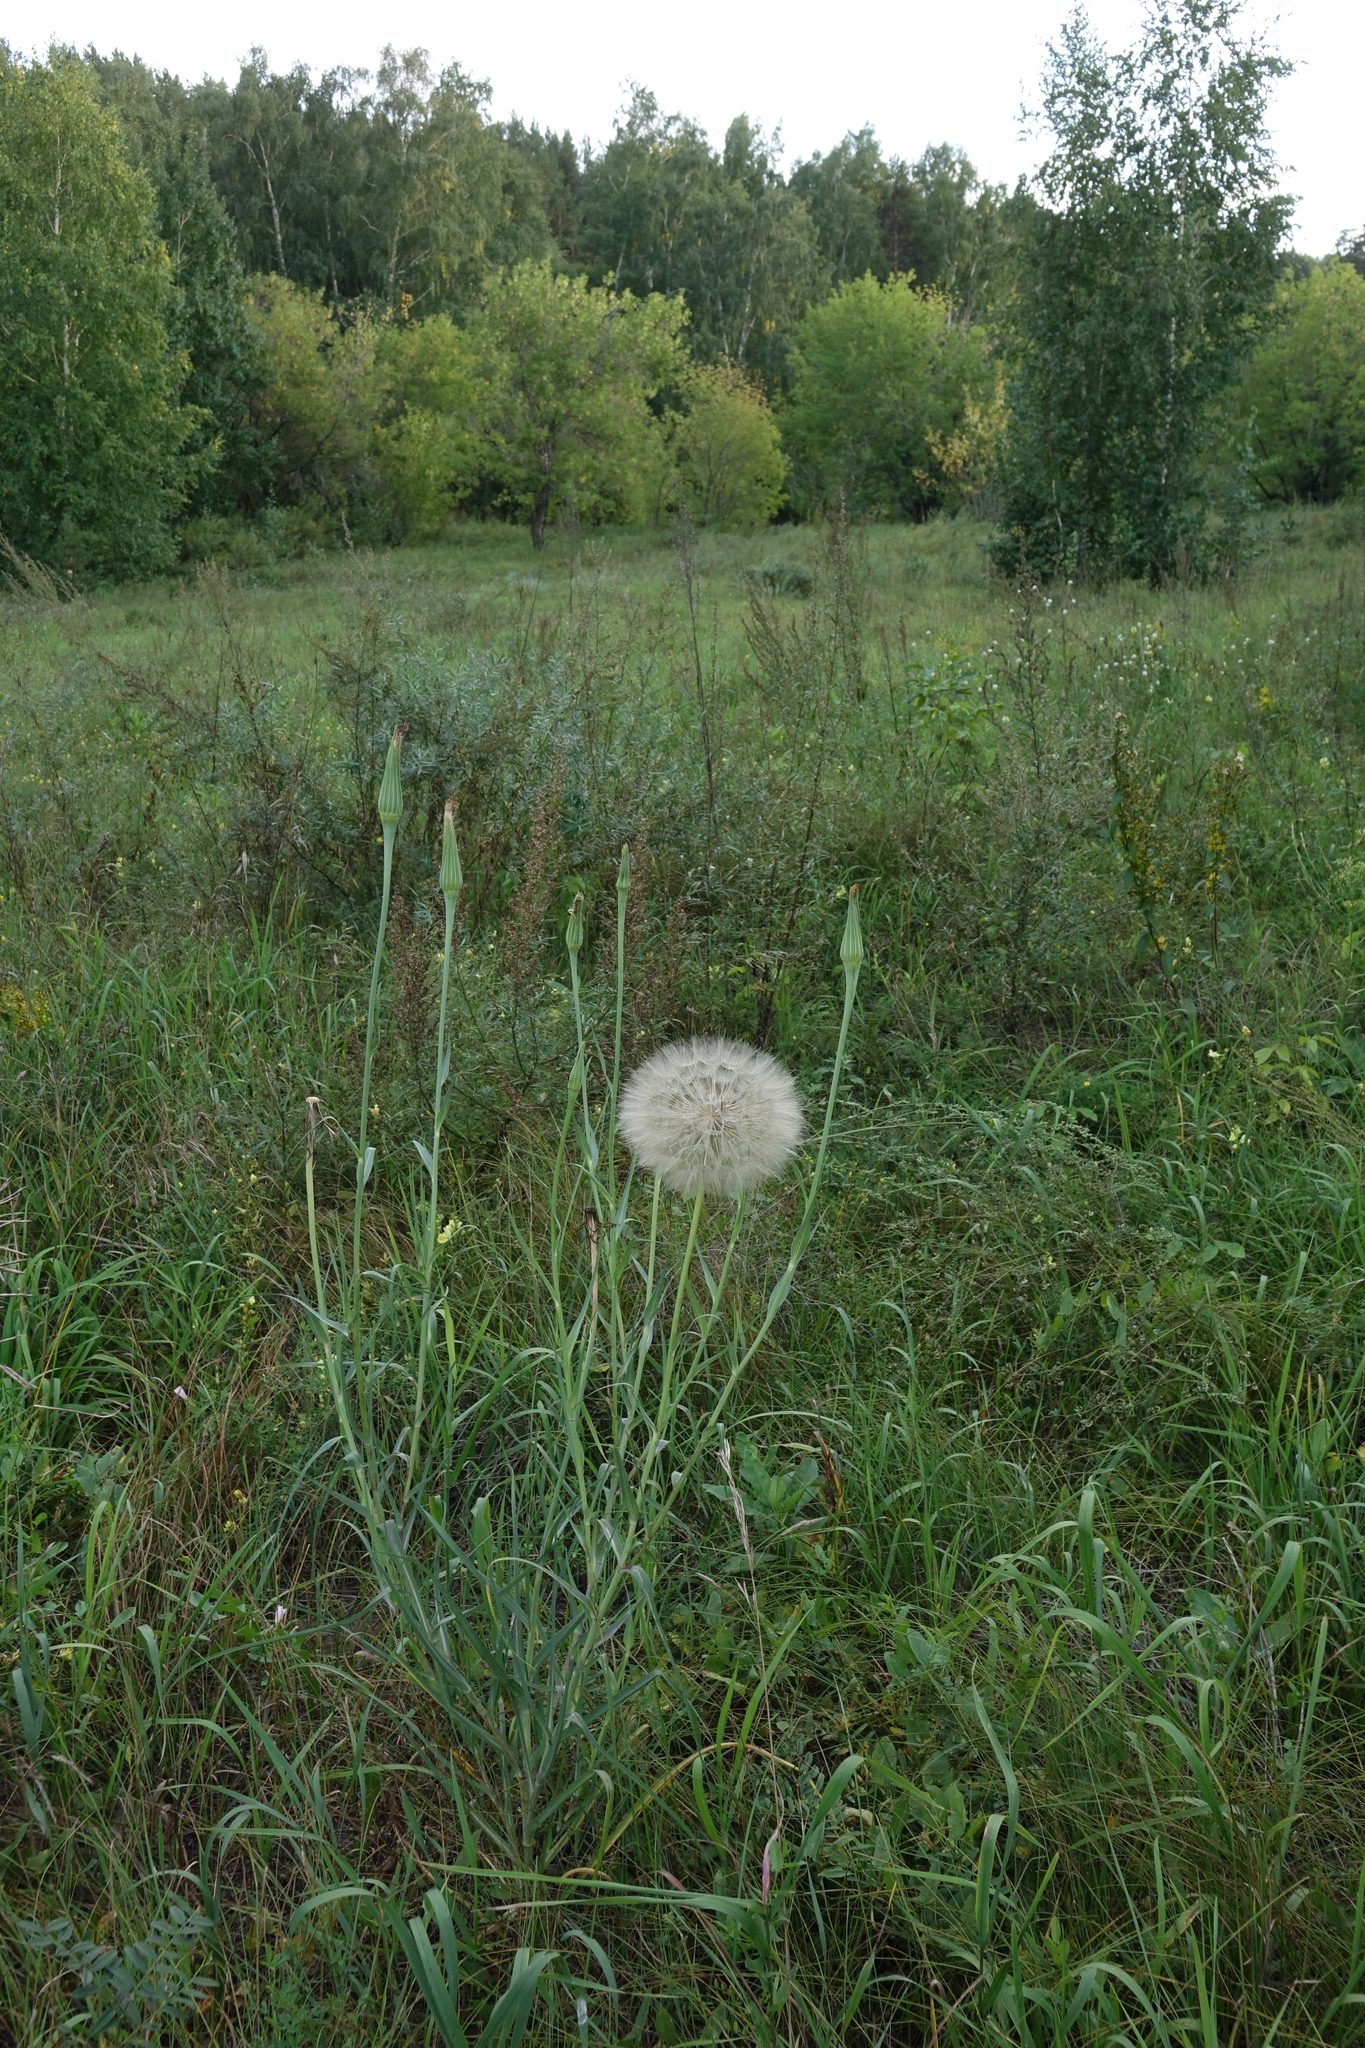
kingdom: Plantae
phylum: Tracheophyta
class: Magnoliopsida
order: Asterales
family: Asteraceae
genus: Tragopogon
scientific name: Tragopogon dubius
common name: Yellow salsify
